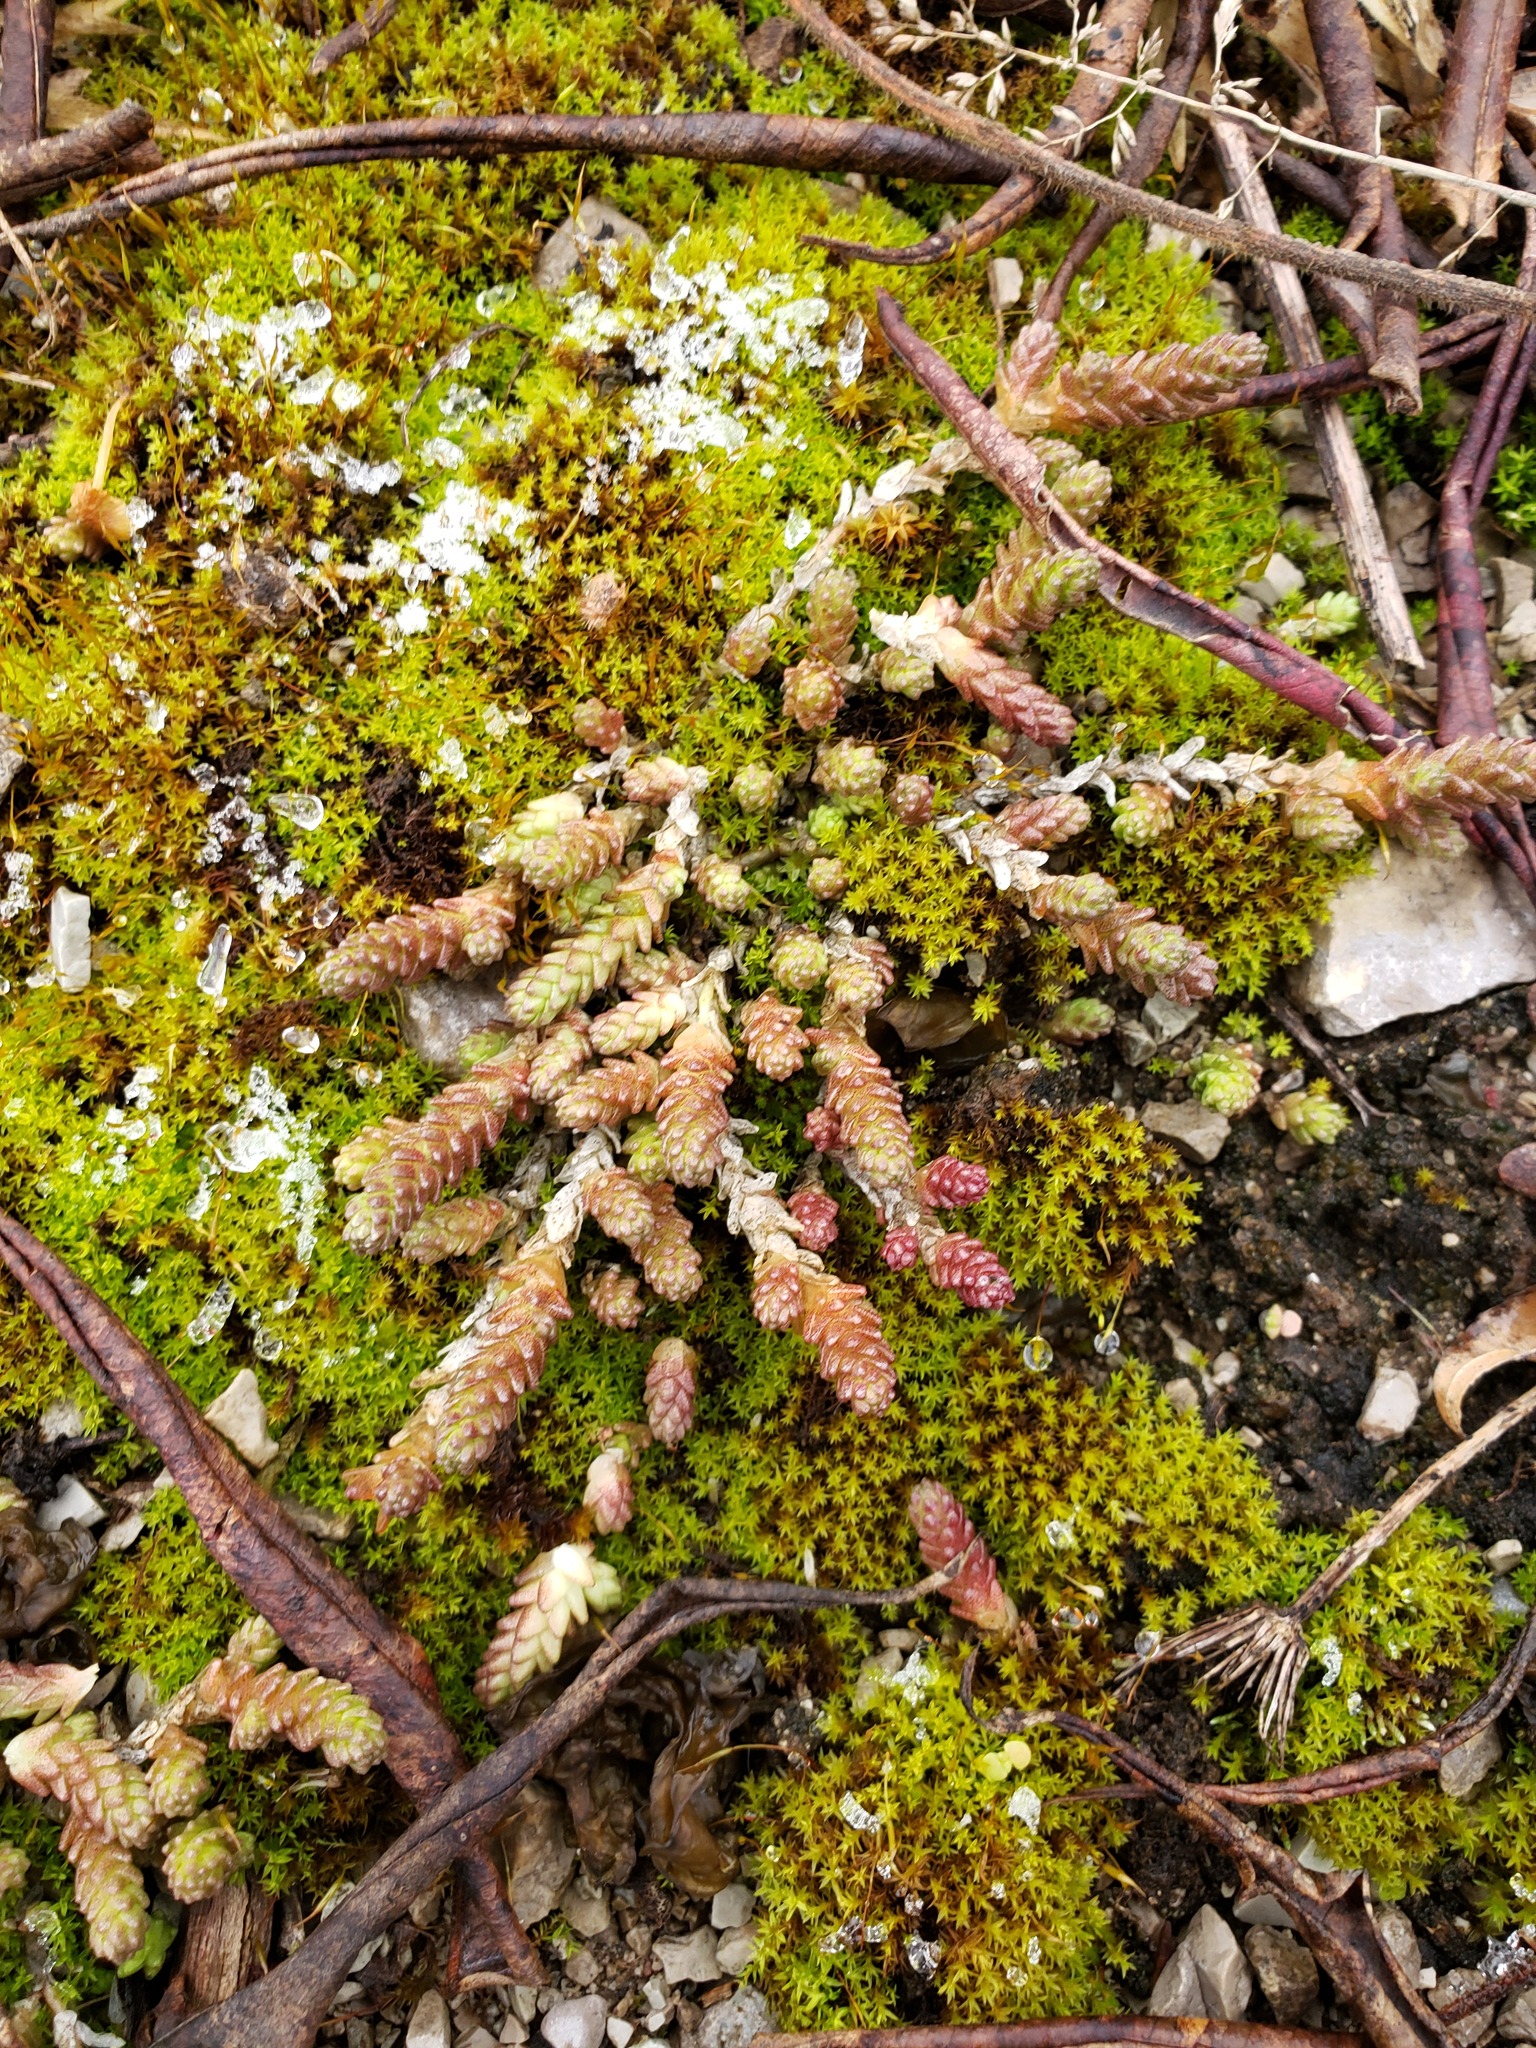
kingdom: Plantae
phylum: Tracheophyta
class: Magnoliopsida
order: Saxifragales
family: Crassulaceae
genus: Sedum
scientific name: Sedum acre
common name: Biting stonecrop
